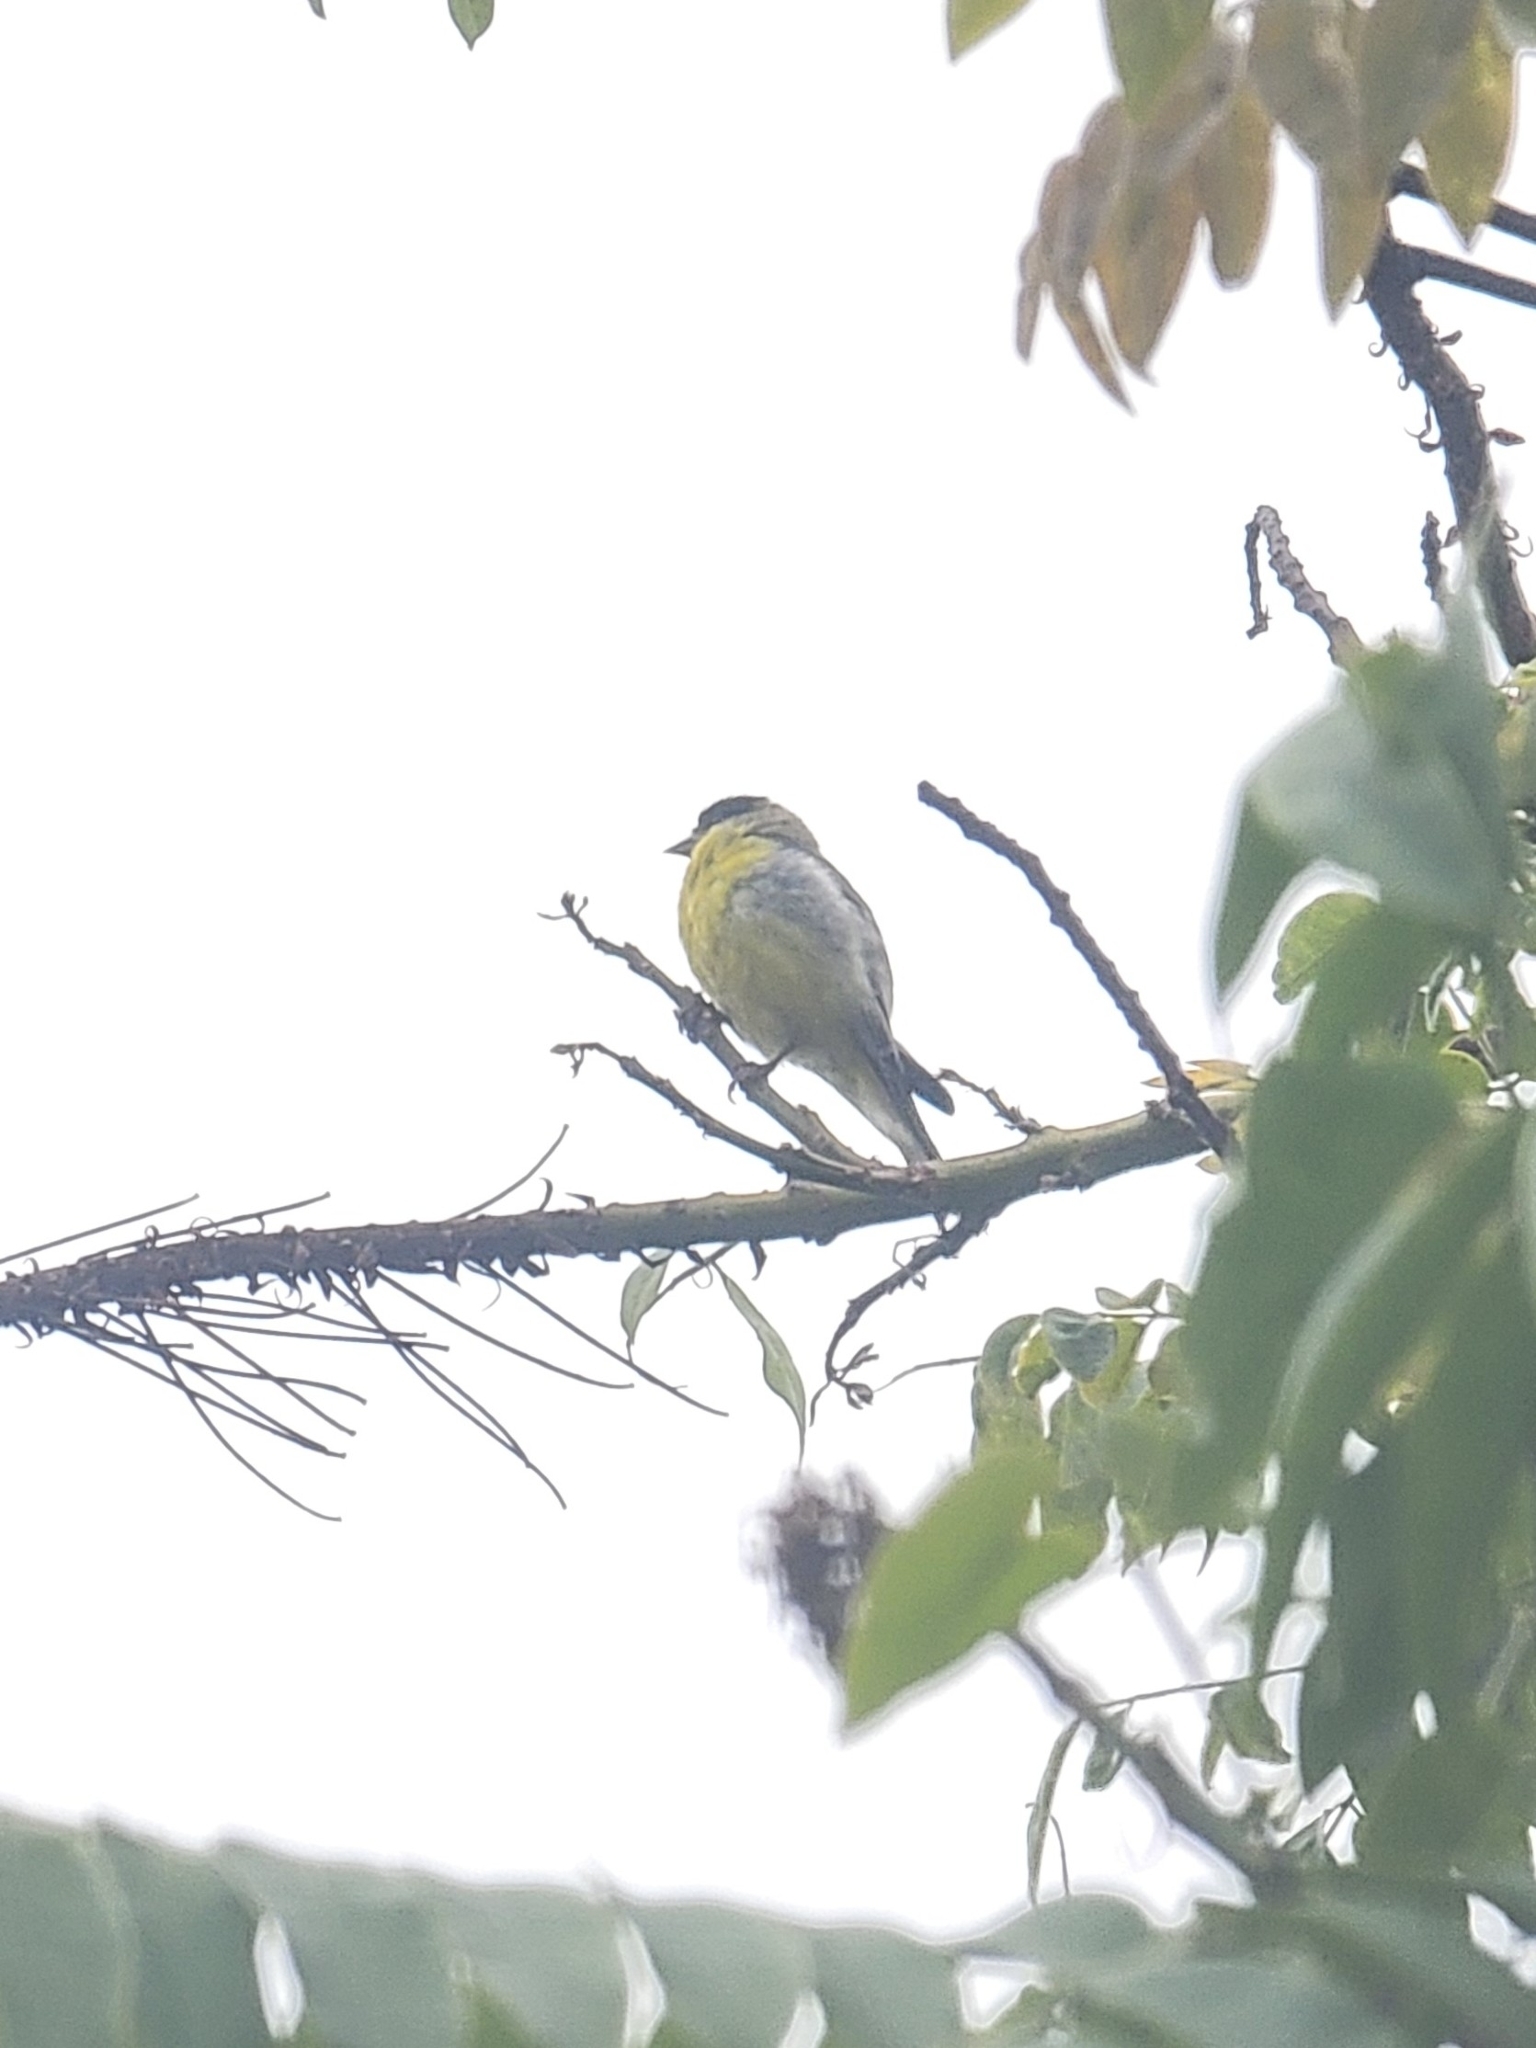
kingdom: Animalia
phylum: Chordata
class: Aves
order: Passeriformes
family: Fringillidae
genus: Spinus
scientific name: Spinus psaltria
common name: Lesser goldfinch
